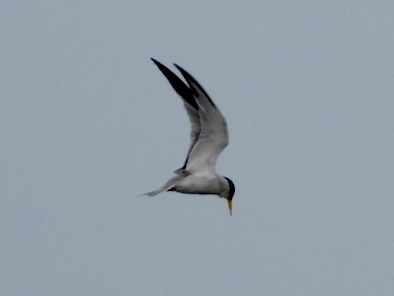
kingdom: Animalia
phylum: Chordata
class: Aves
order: Charadriiformes
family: Laridae
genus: Sternula
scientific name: Sternula antillarum
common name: Least tern
